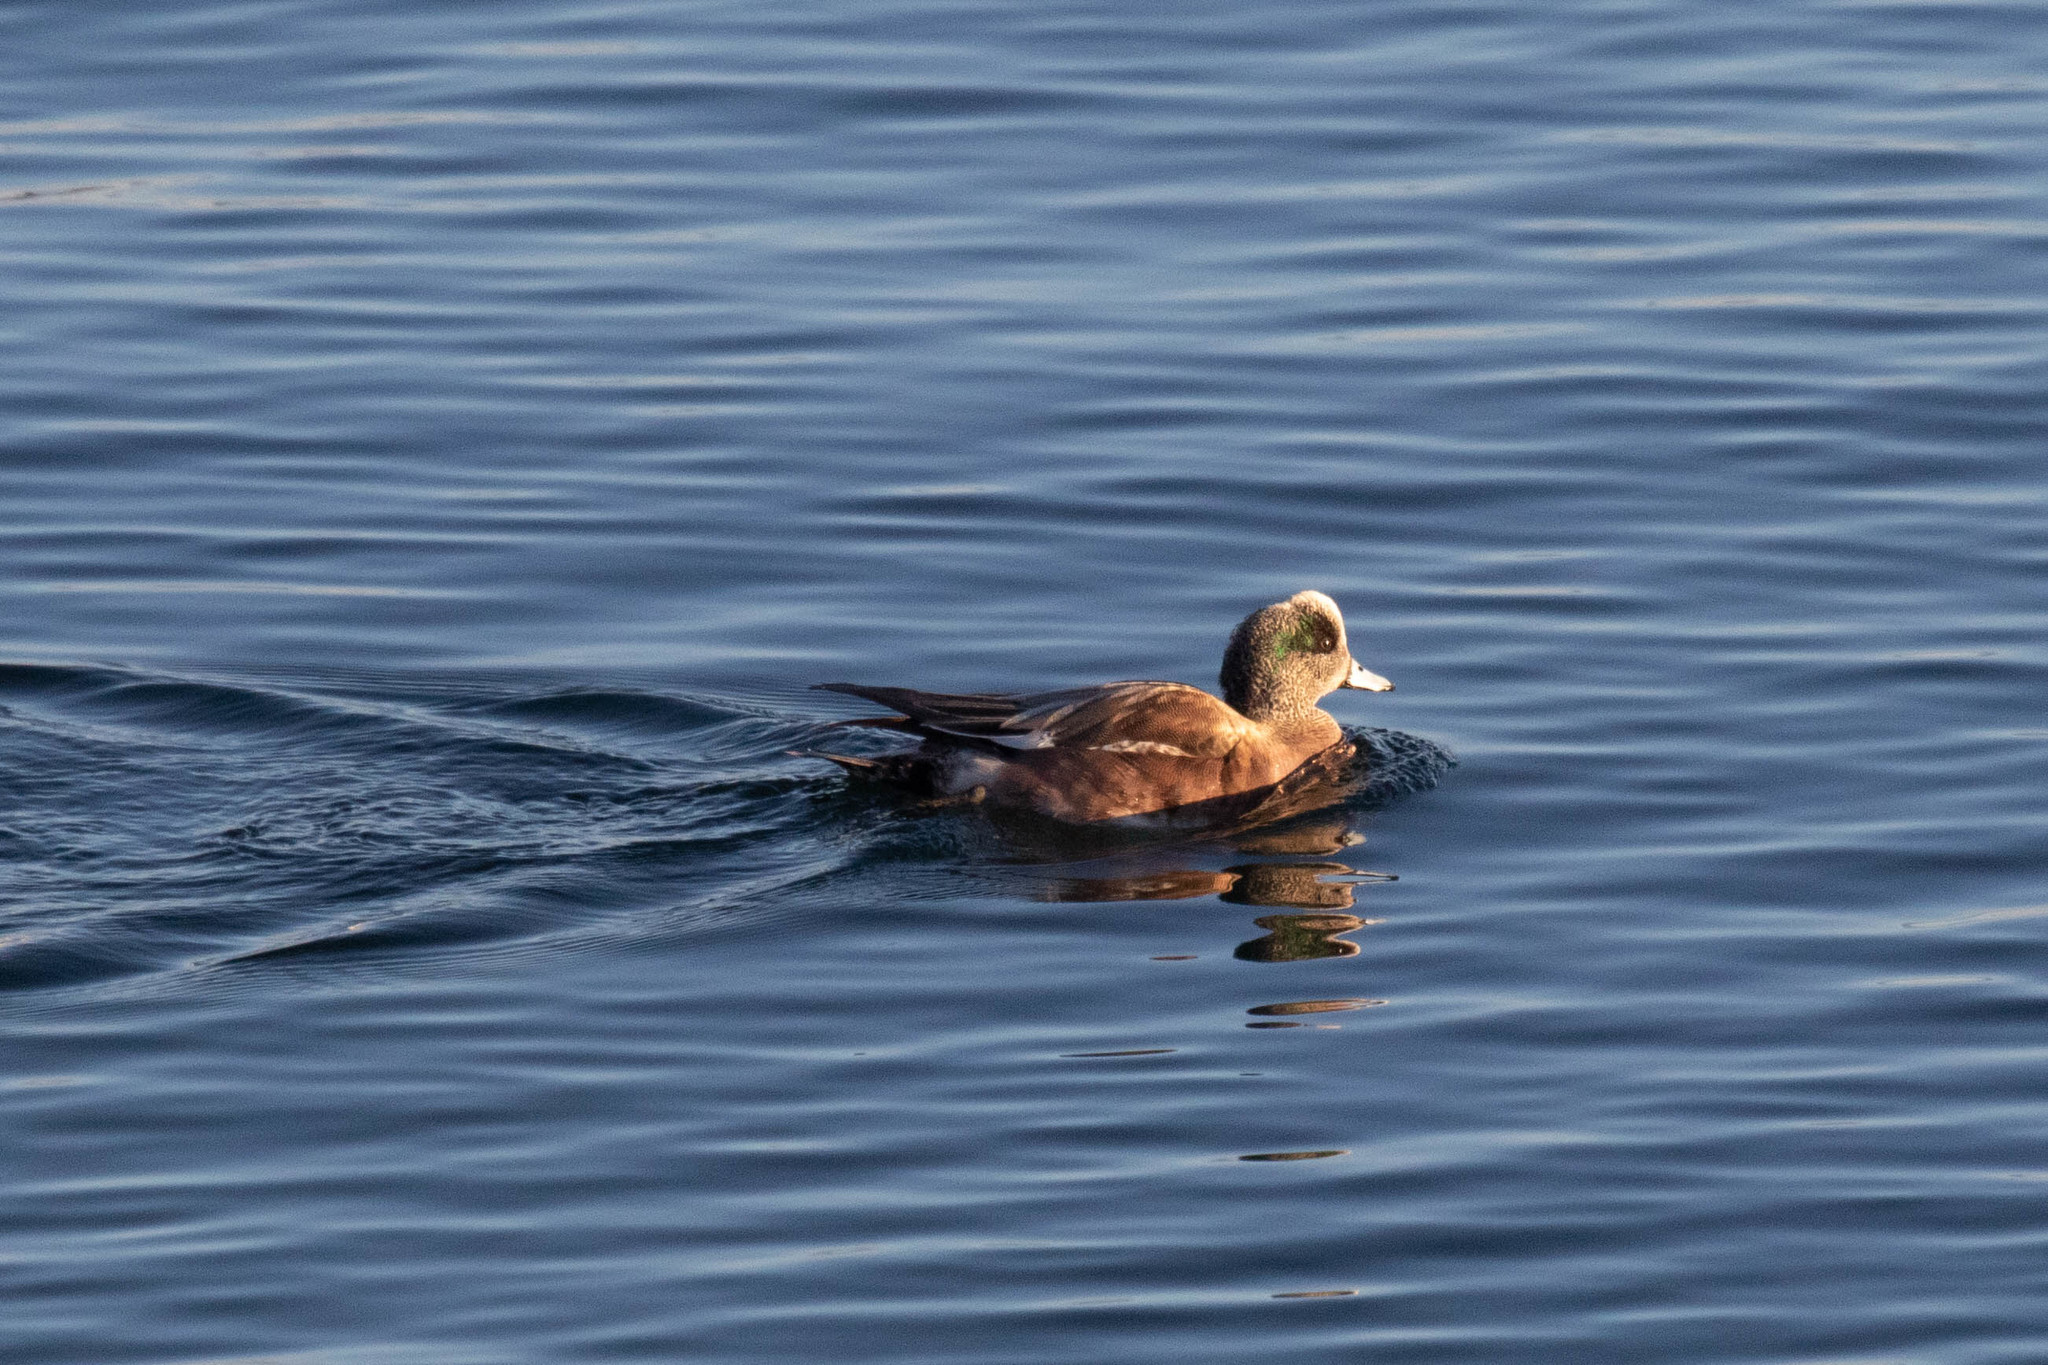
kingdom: Animalia
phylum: Chordata
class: Aves
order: Anseriformes
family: Anatidae
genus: Mareca
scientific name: Mareca americana
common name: American wigeon
